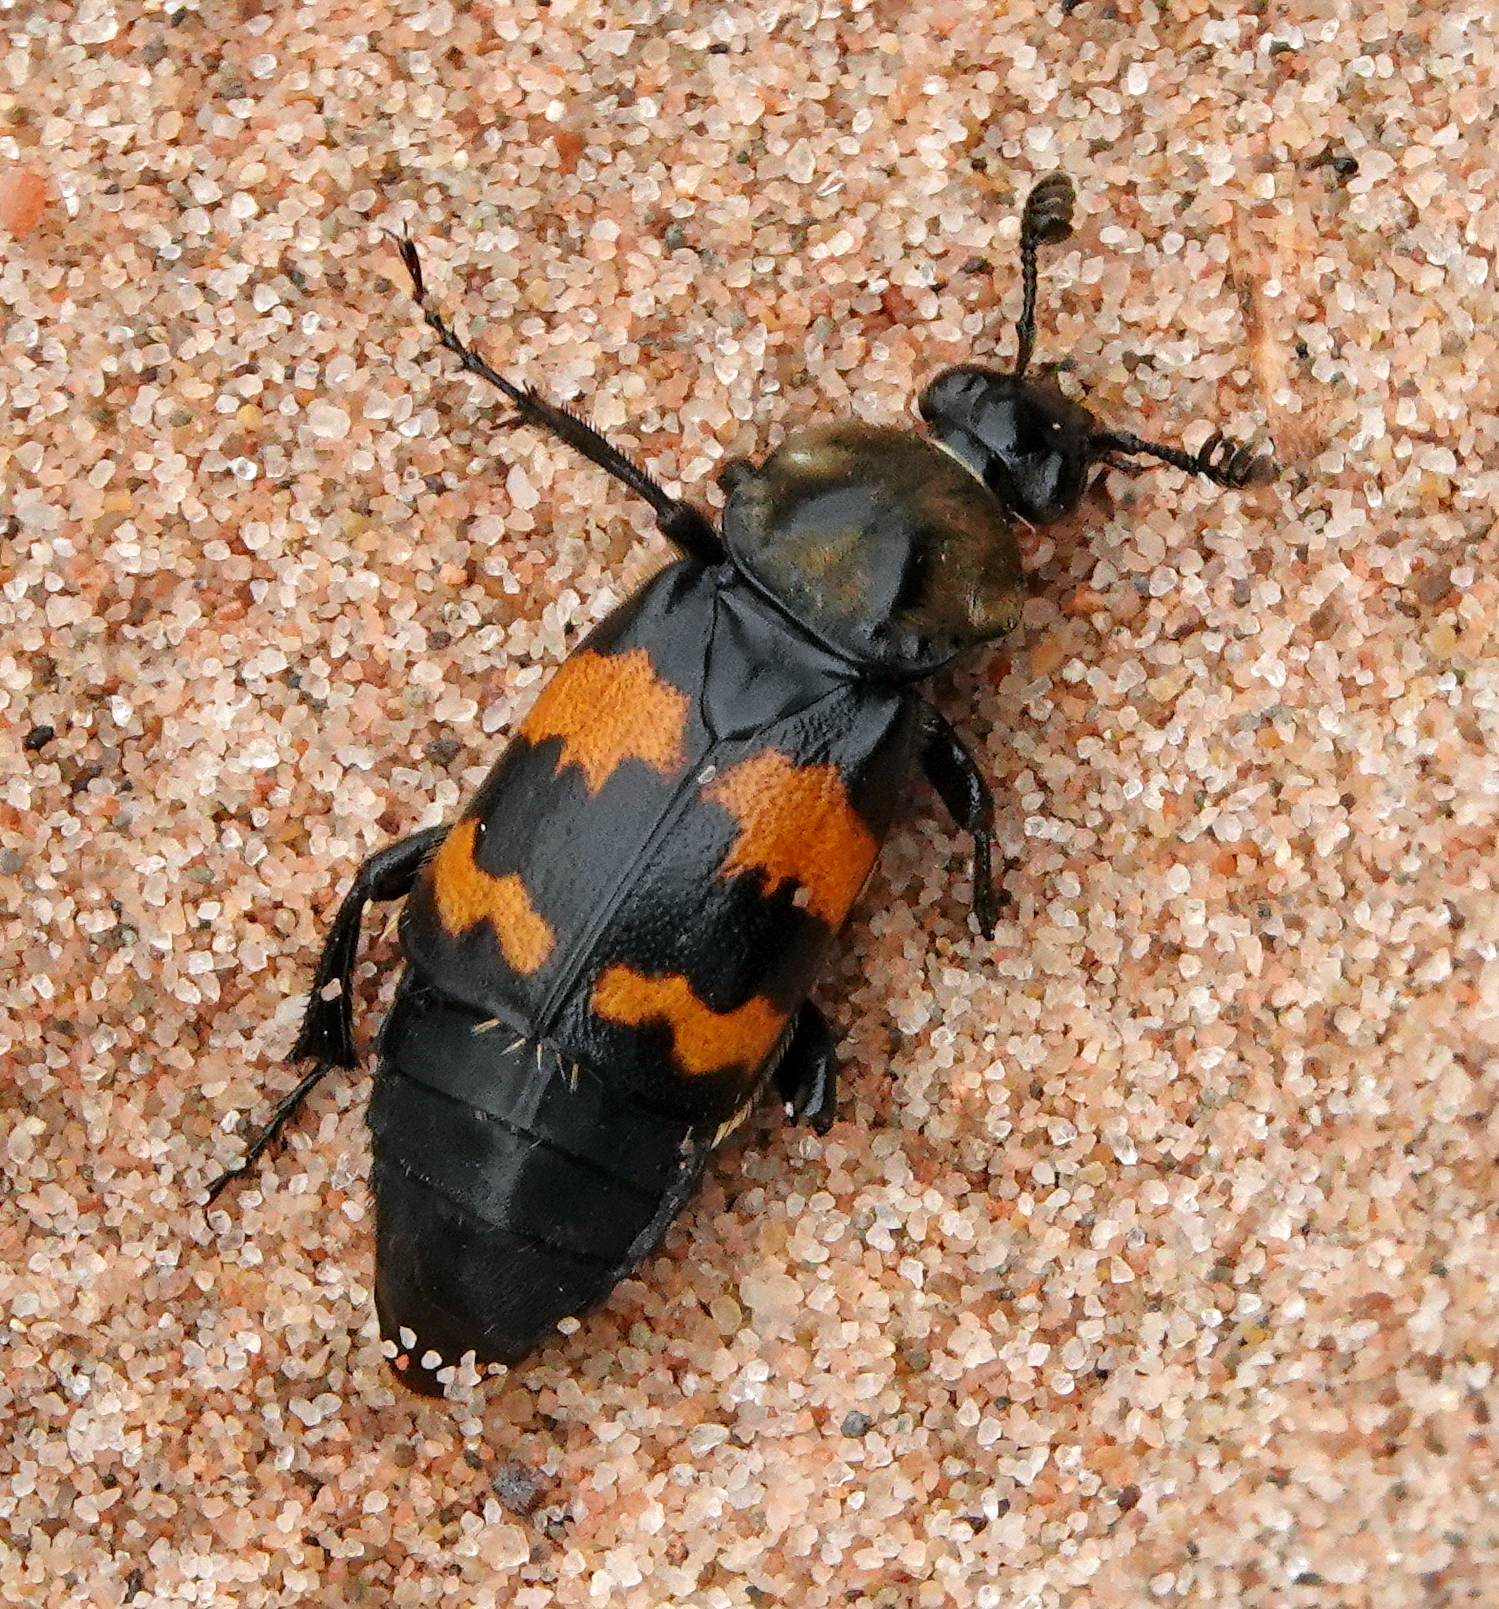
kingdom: Animalia
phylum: Arthropoda
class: Insecta
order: Coleoptera
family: Staphylinidae
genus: Nicrophorus
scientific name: Nicrophorus tomentosus
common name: Tomentose burying beetle
